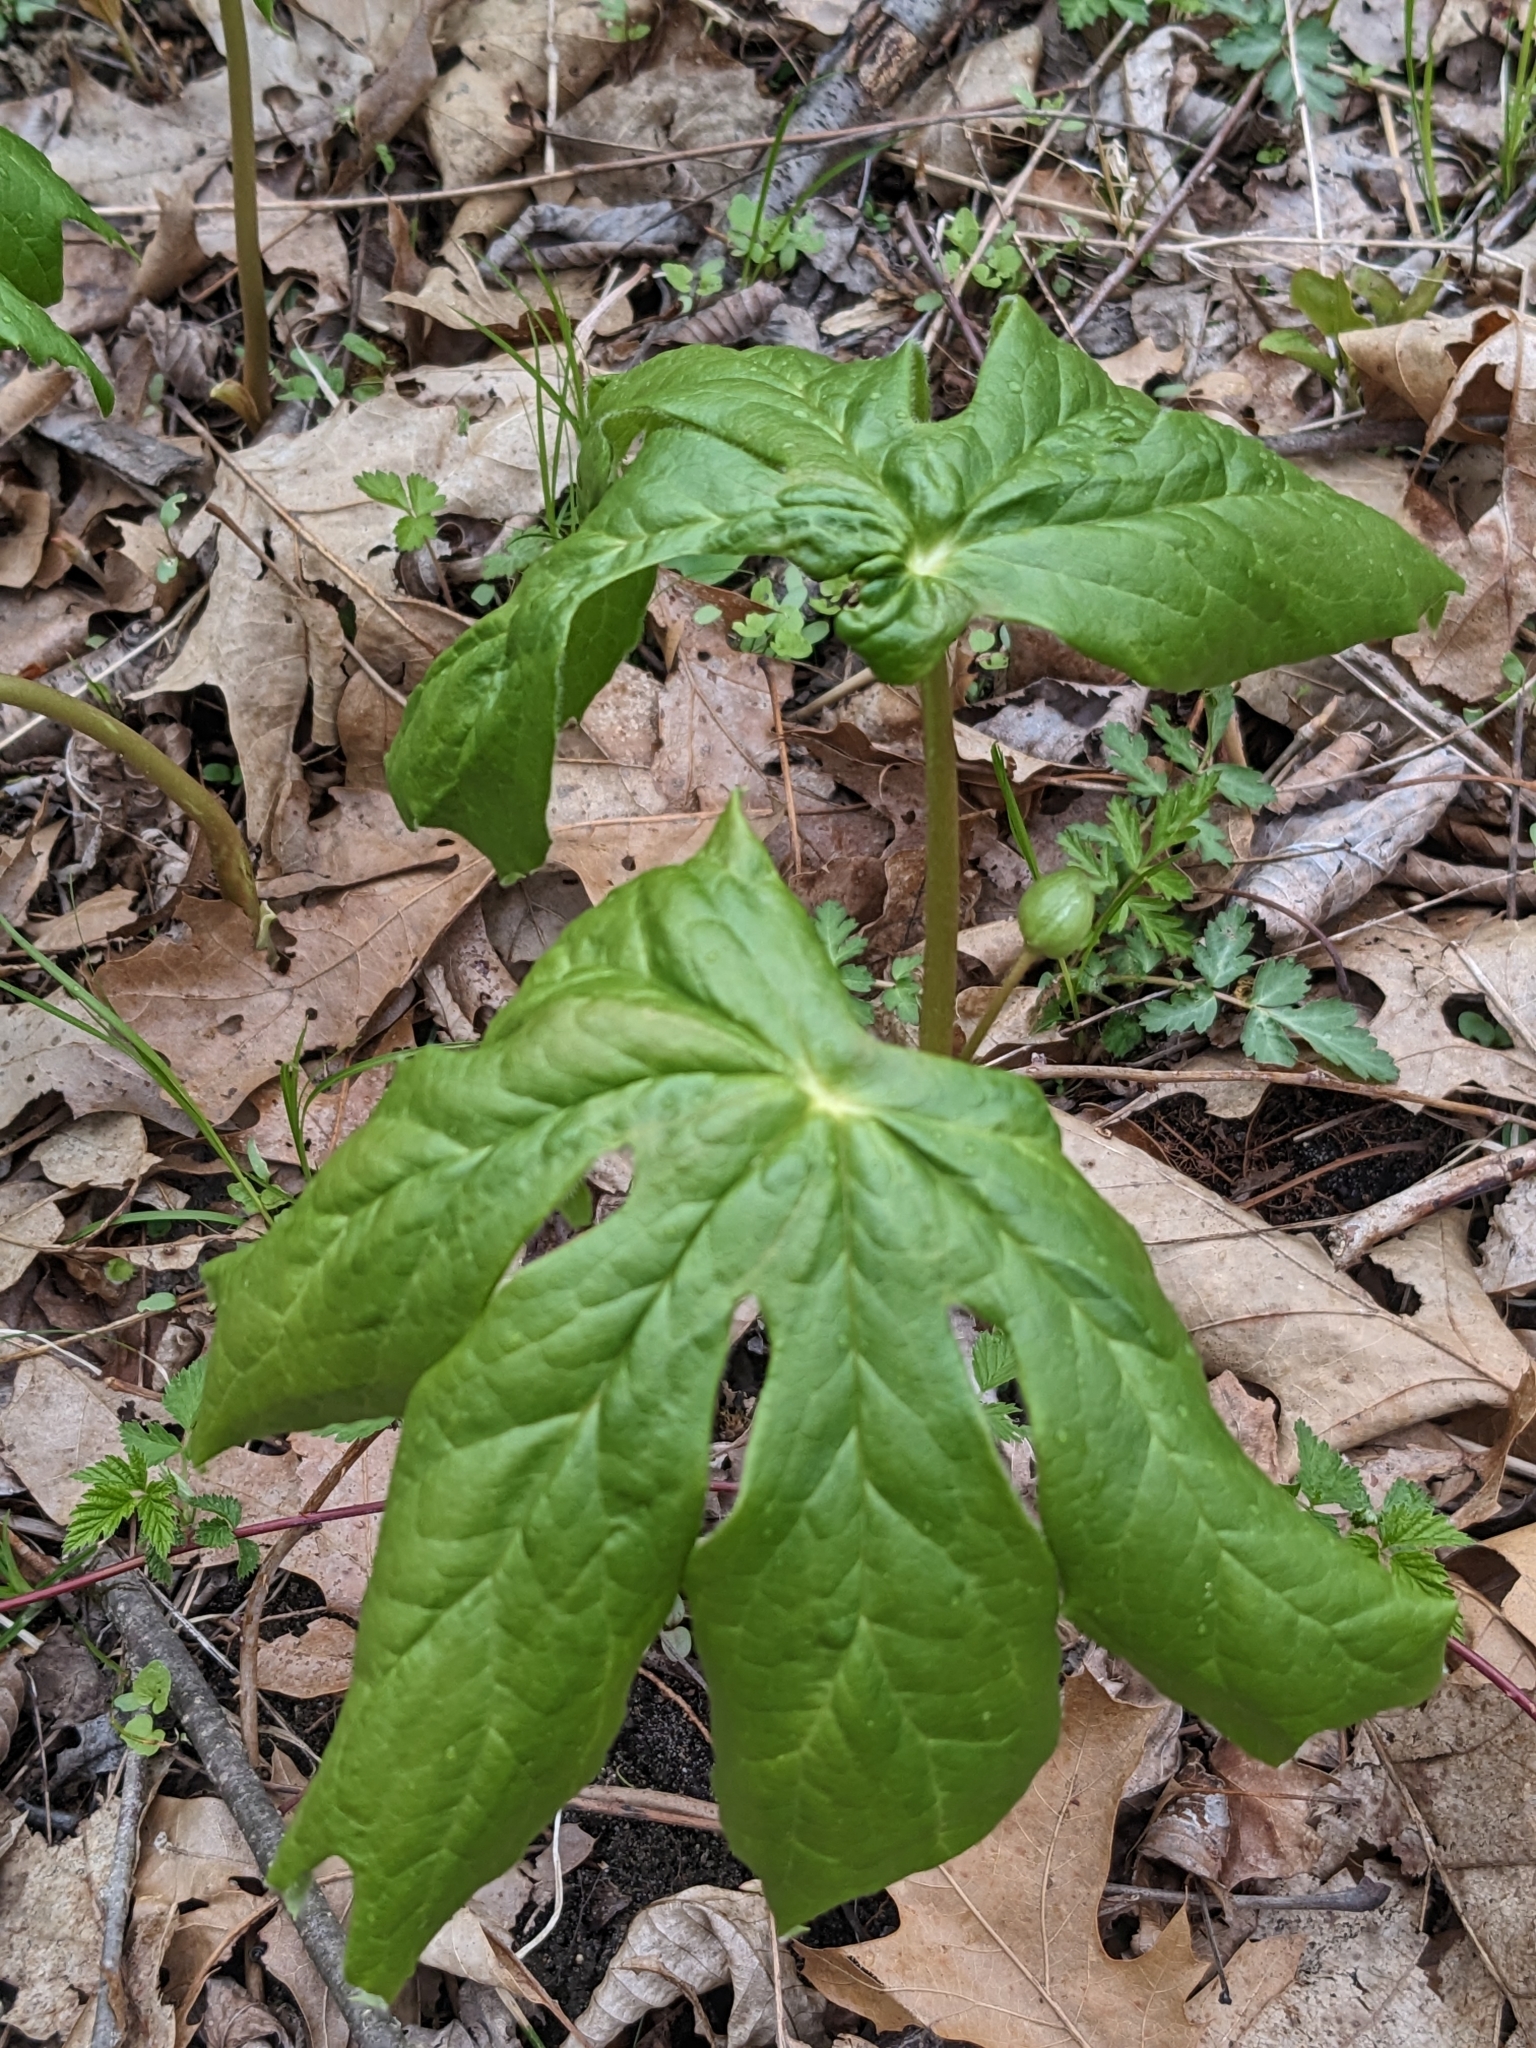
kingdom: Plantae
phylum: Tracheophyta
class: Magnoliopsida
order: Ranunculales
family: Berberidaceae
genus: Podophyllum
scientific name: Podophyllum peltatum
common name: Wild mandrake
